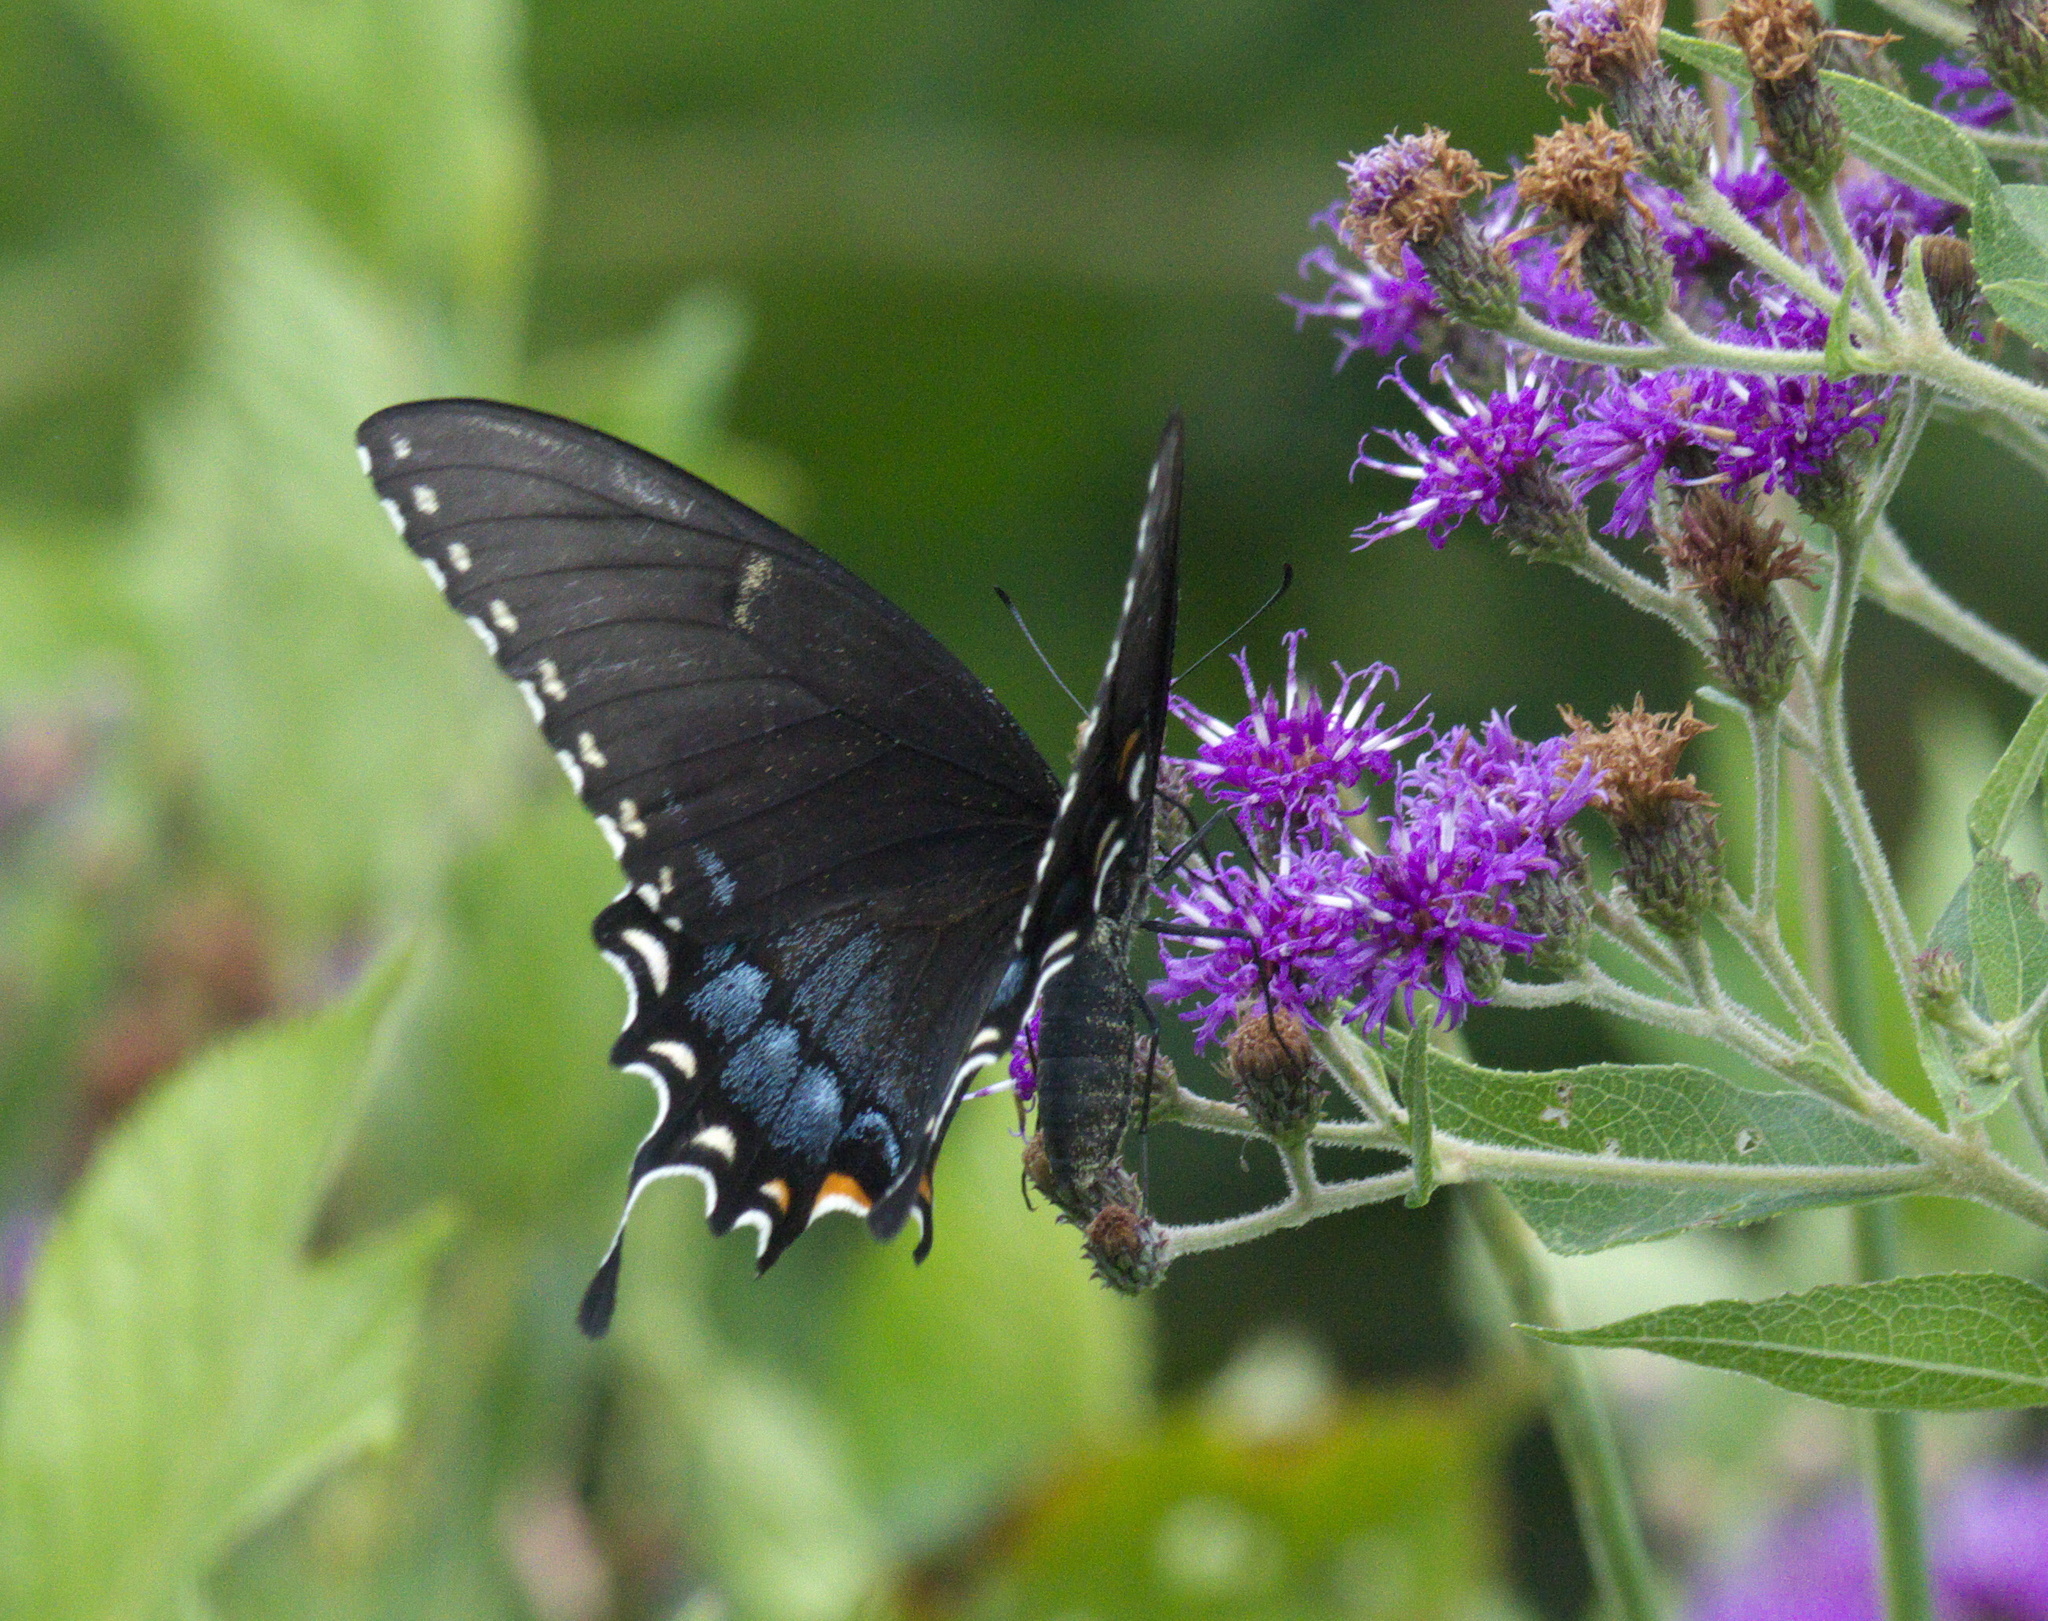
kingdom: Animalia
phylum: Arthropoda
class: Insecta
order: Lepidoptera
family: Papilionidae
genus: Papilio
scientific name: Papilio glaucus
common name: Tiger swallowtail
